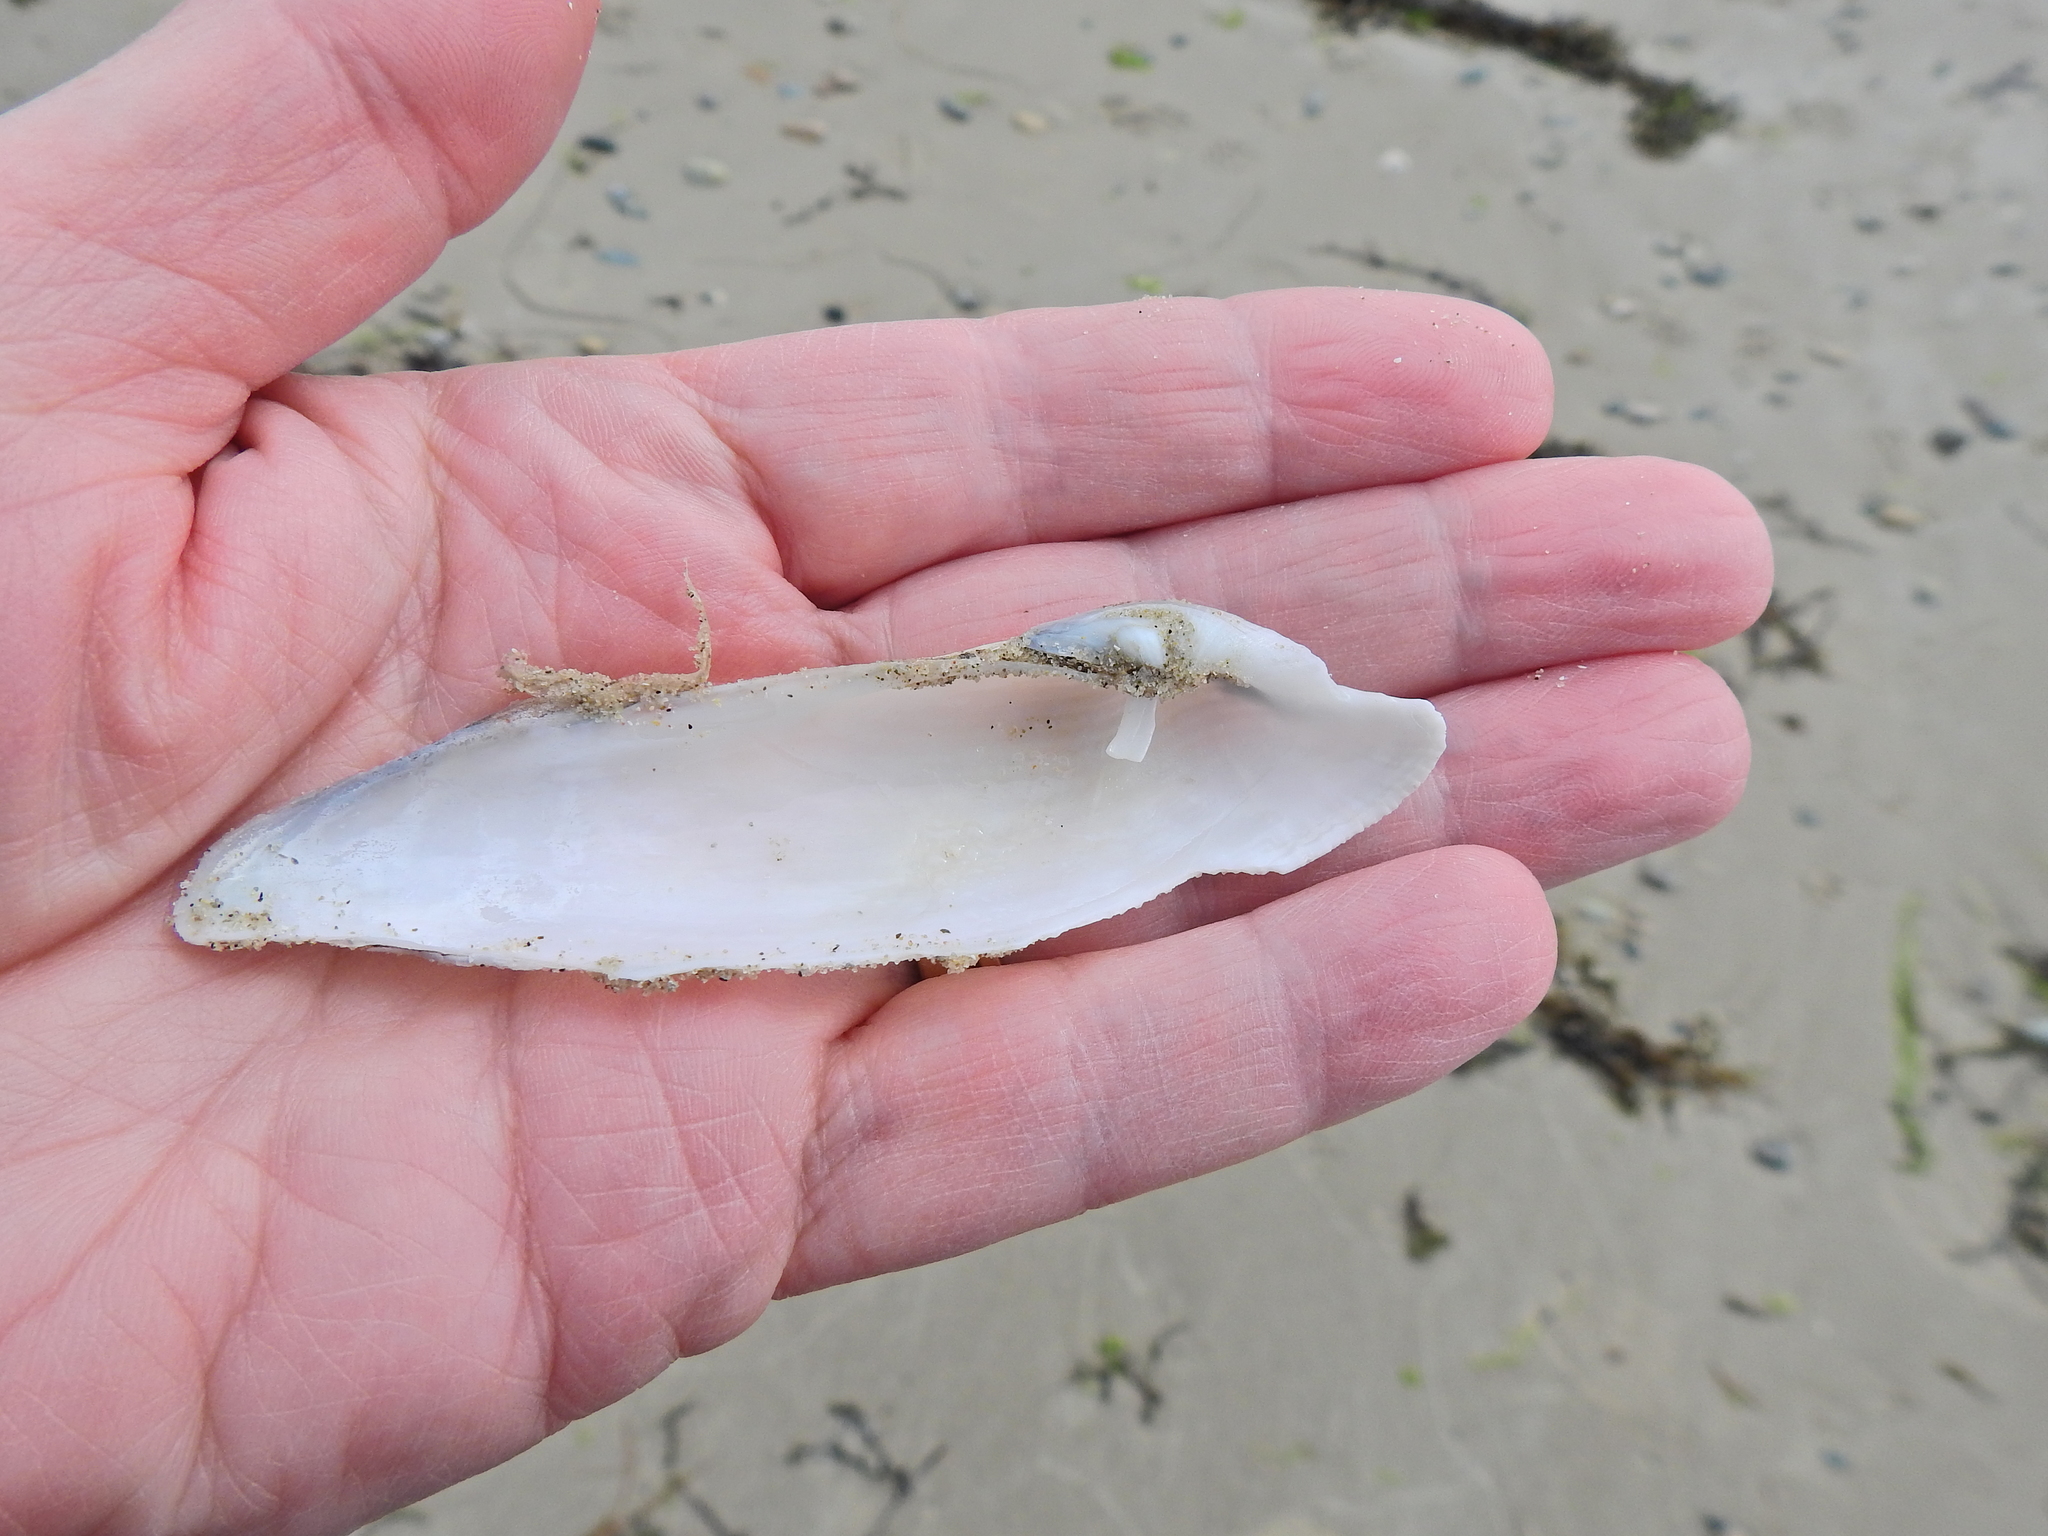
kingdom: Animalia
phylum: Mollusca
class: Bivalvia
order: Myida
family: Pholadidae
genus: Pholas
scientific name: Pholas dactylus
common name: Common piddock
